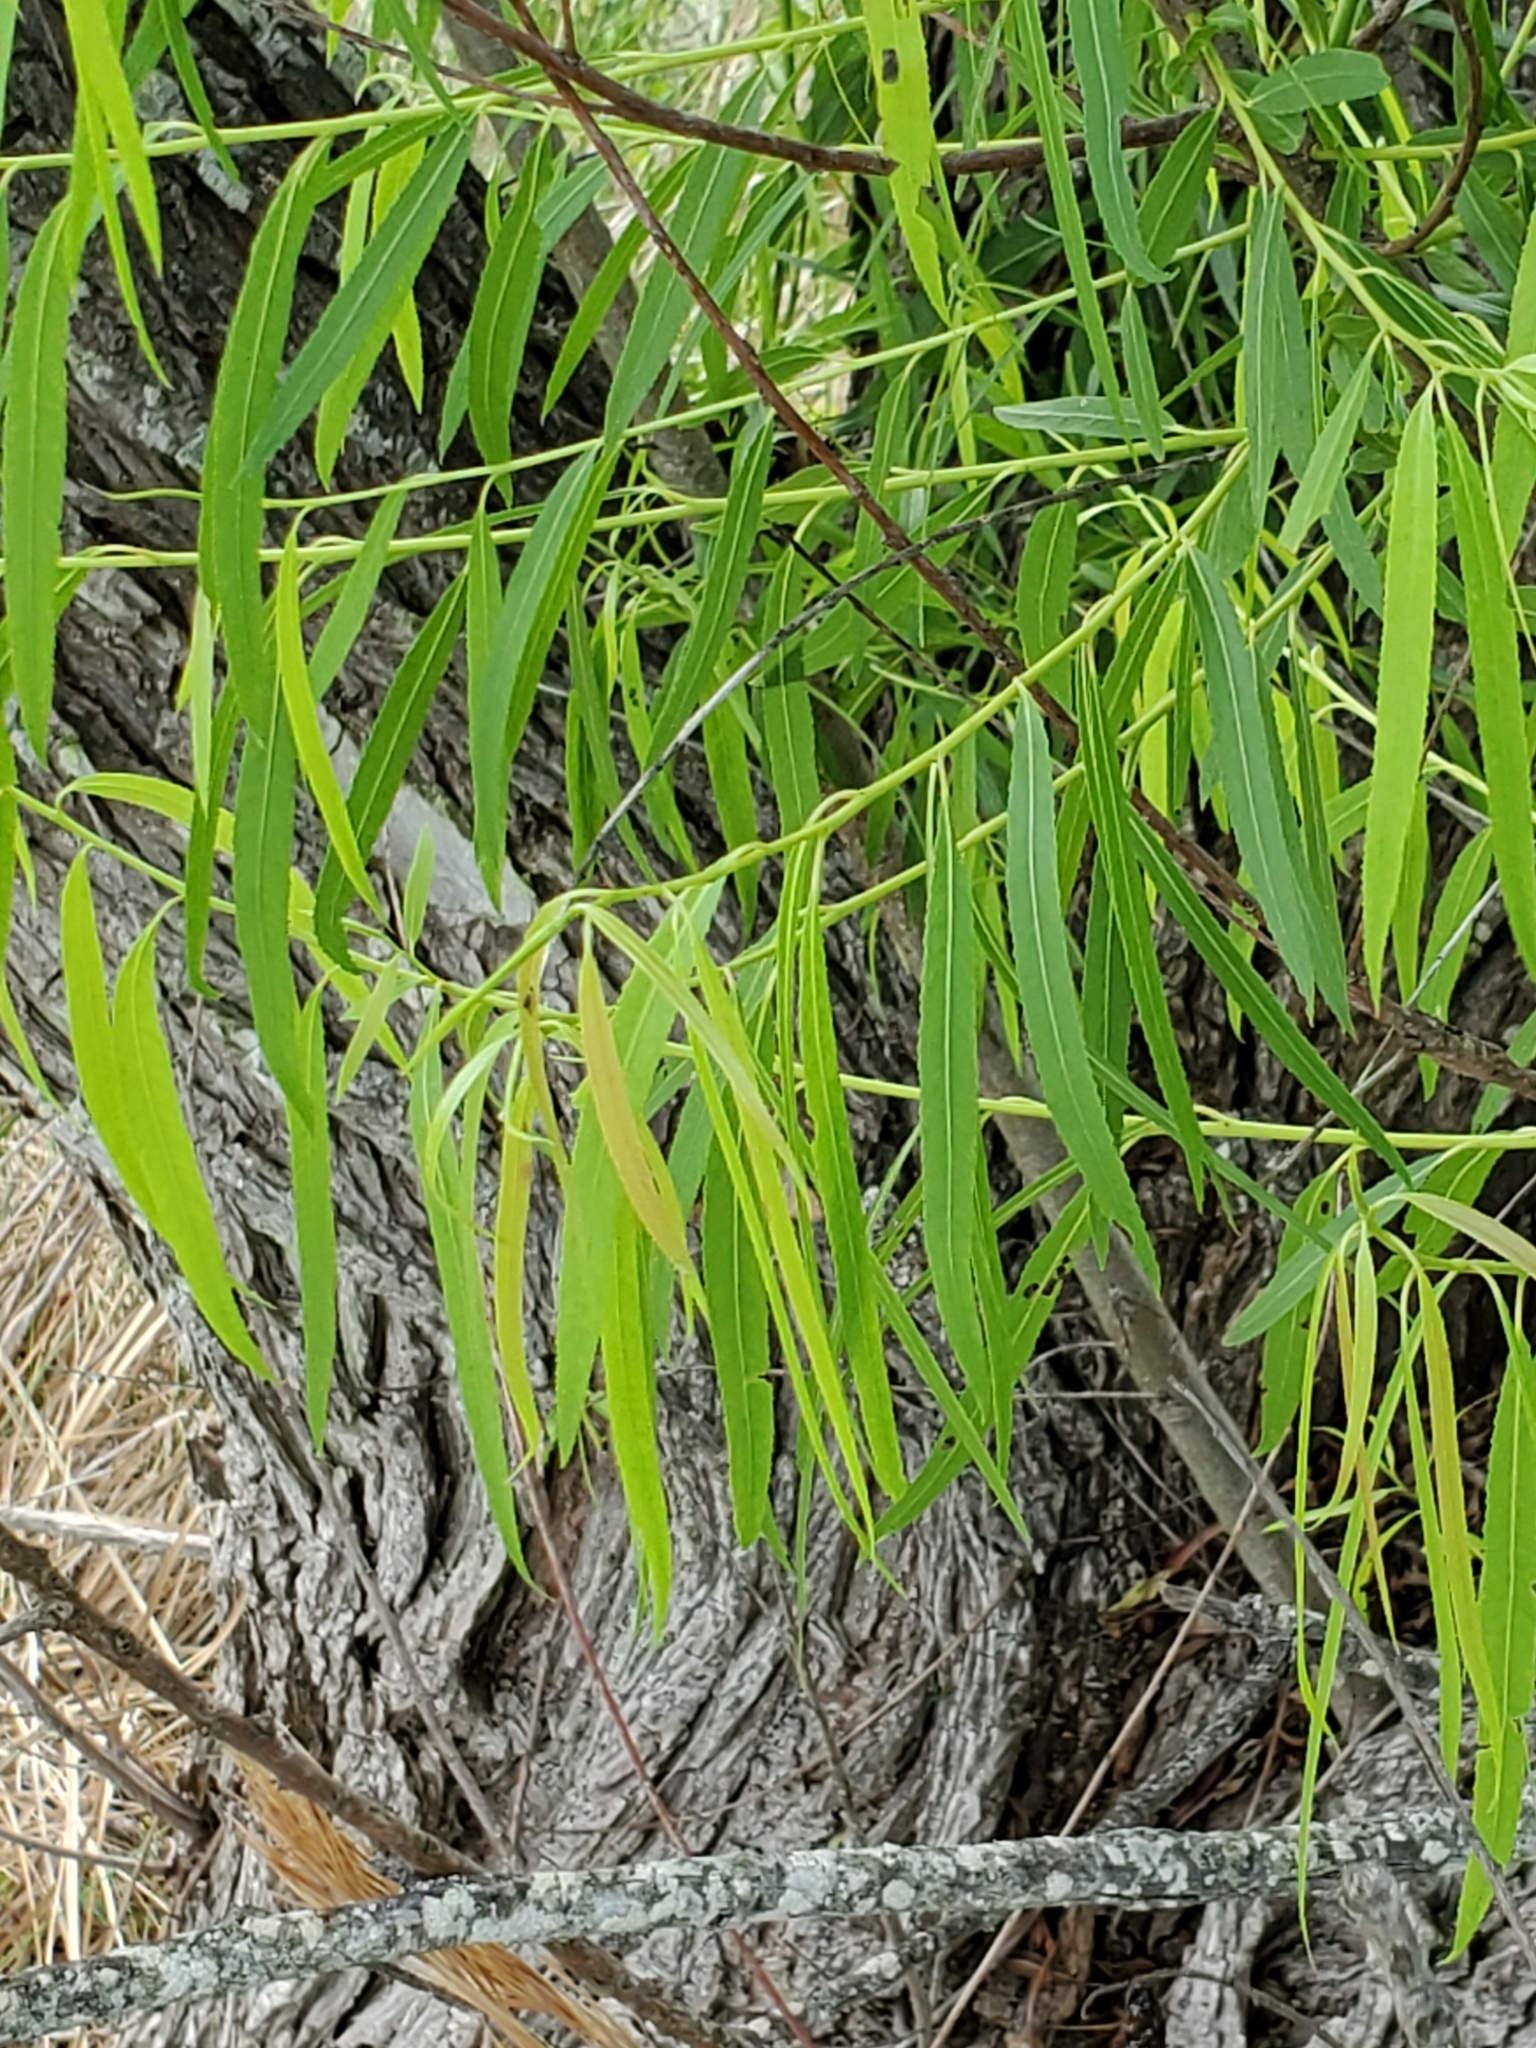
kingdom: Plantae
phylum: Tracheophyta
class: Magnoliopsida
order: Malpighiales
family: Salicaceae
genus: Salix
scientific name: Salix nigra
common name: Black willow
